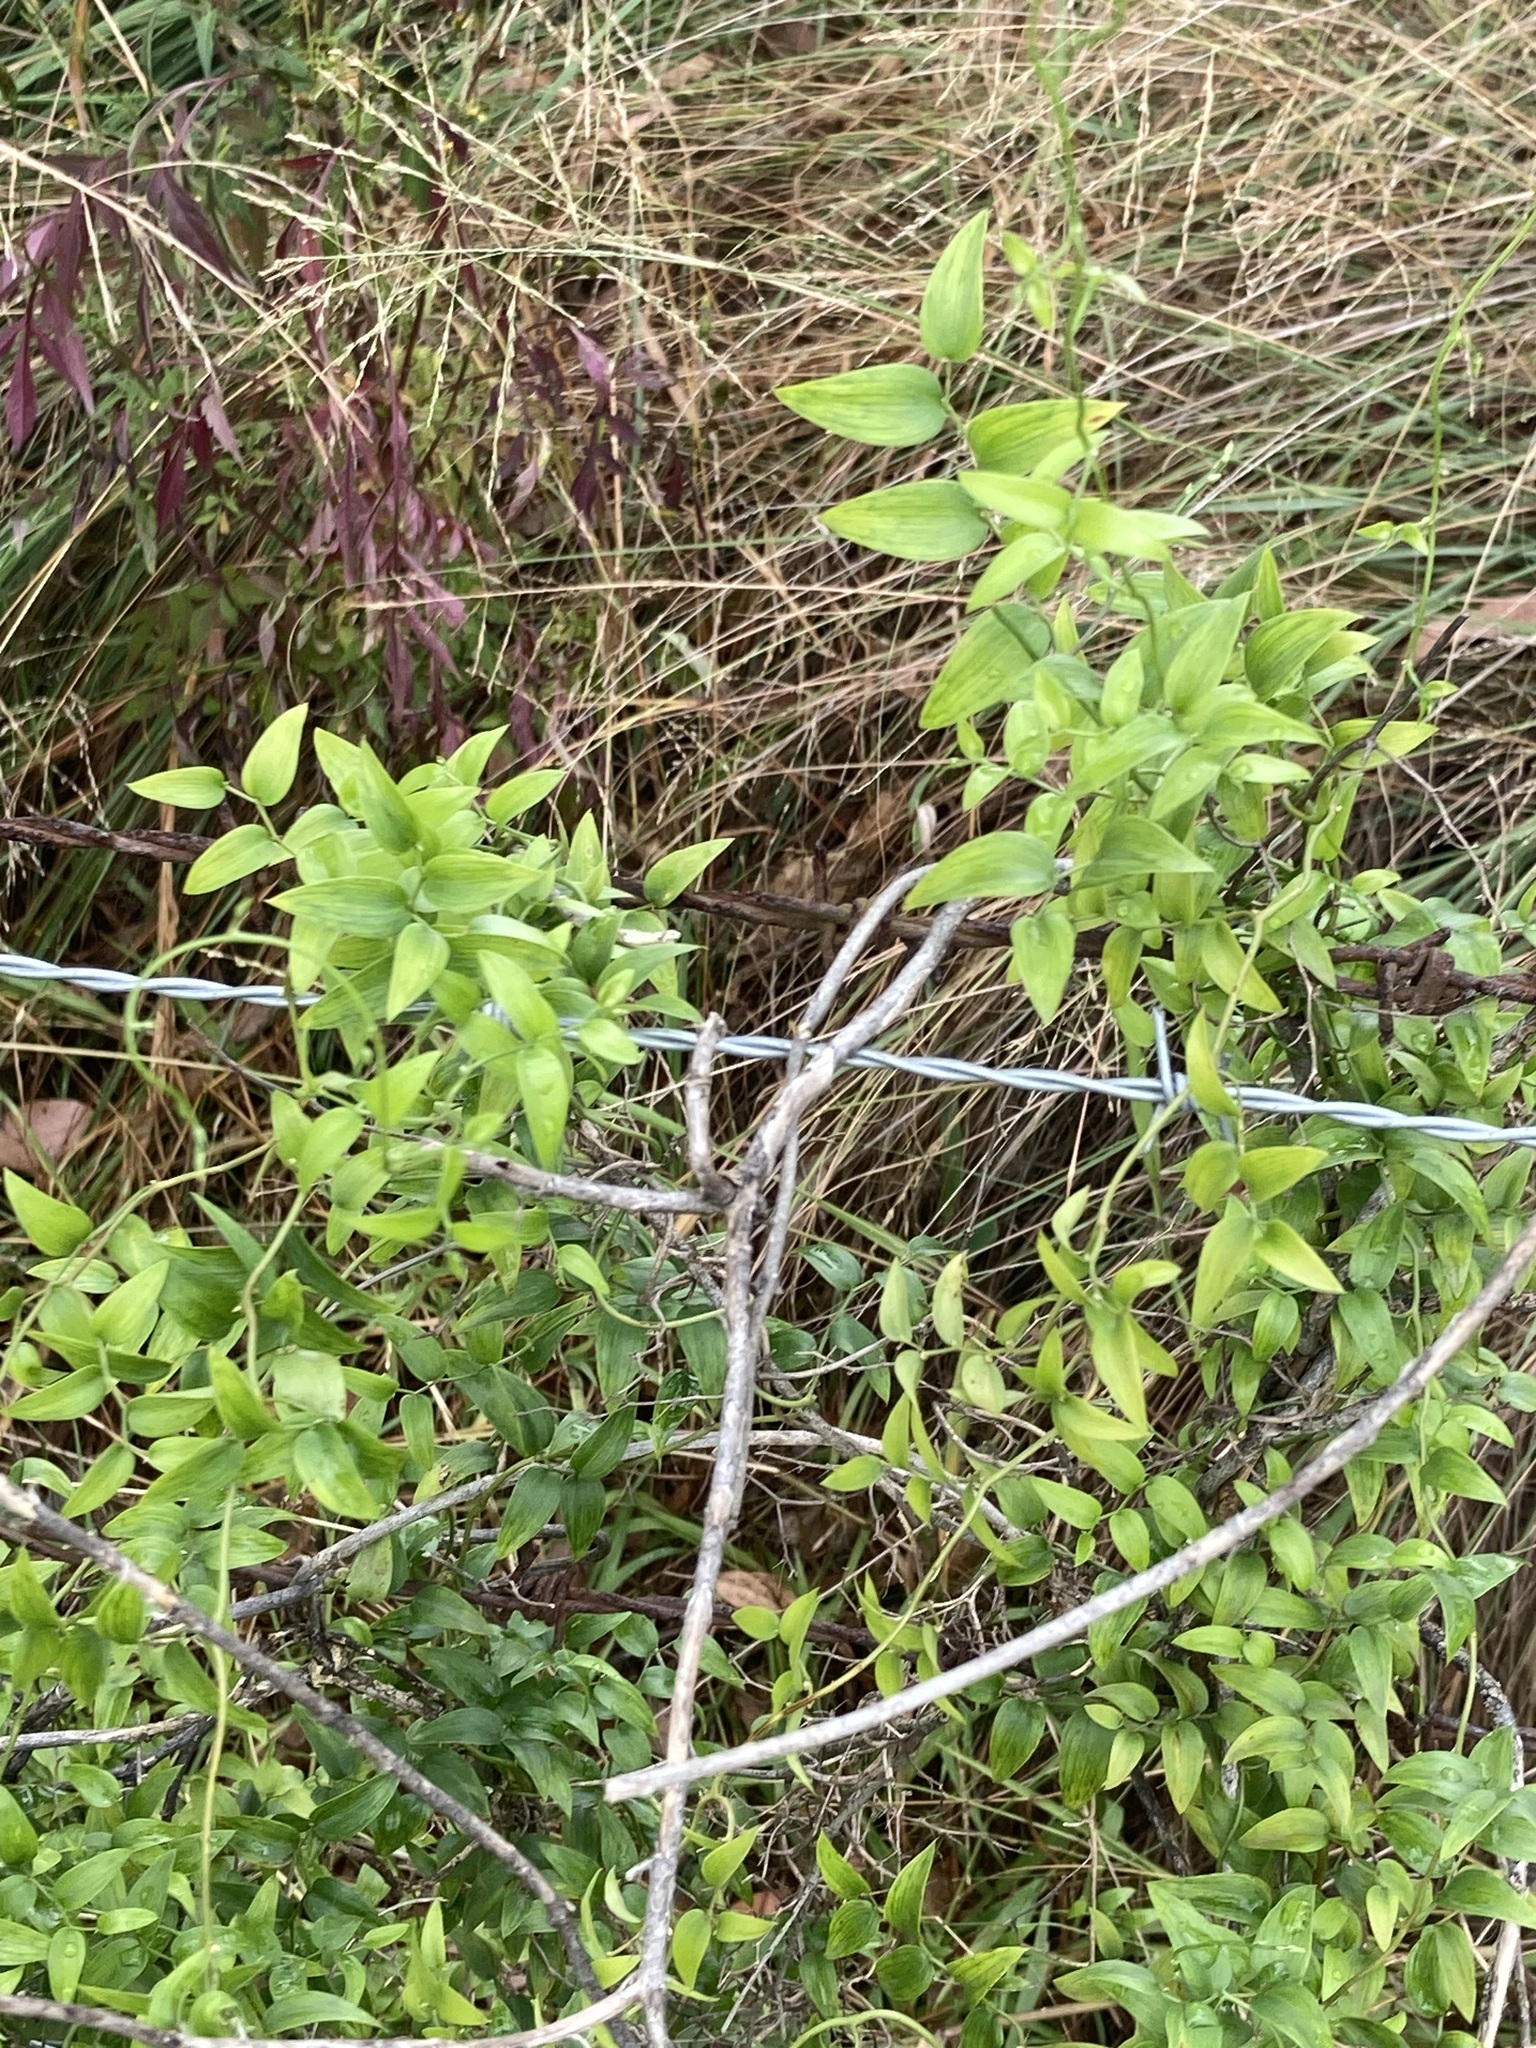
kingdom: Plantae
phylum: Tracheophyta
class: Liliopsida
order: Asparagales
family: Asparagaceae
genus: Asparagus
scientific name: Asparagus asparagoides
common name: African asparagus fern
